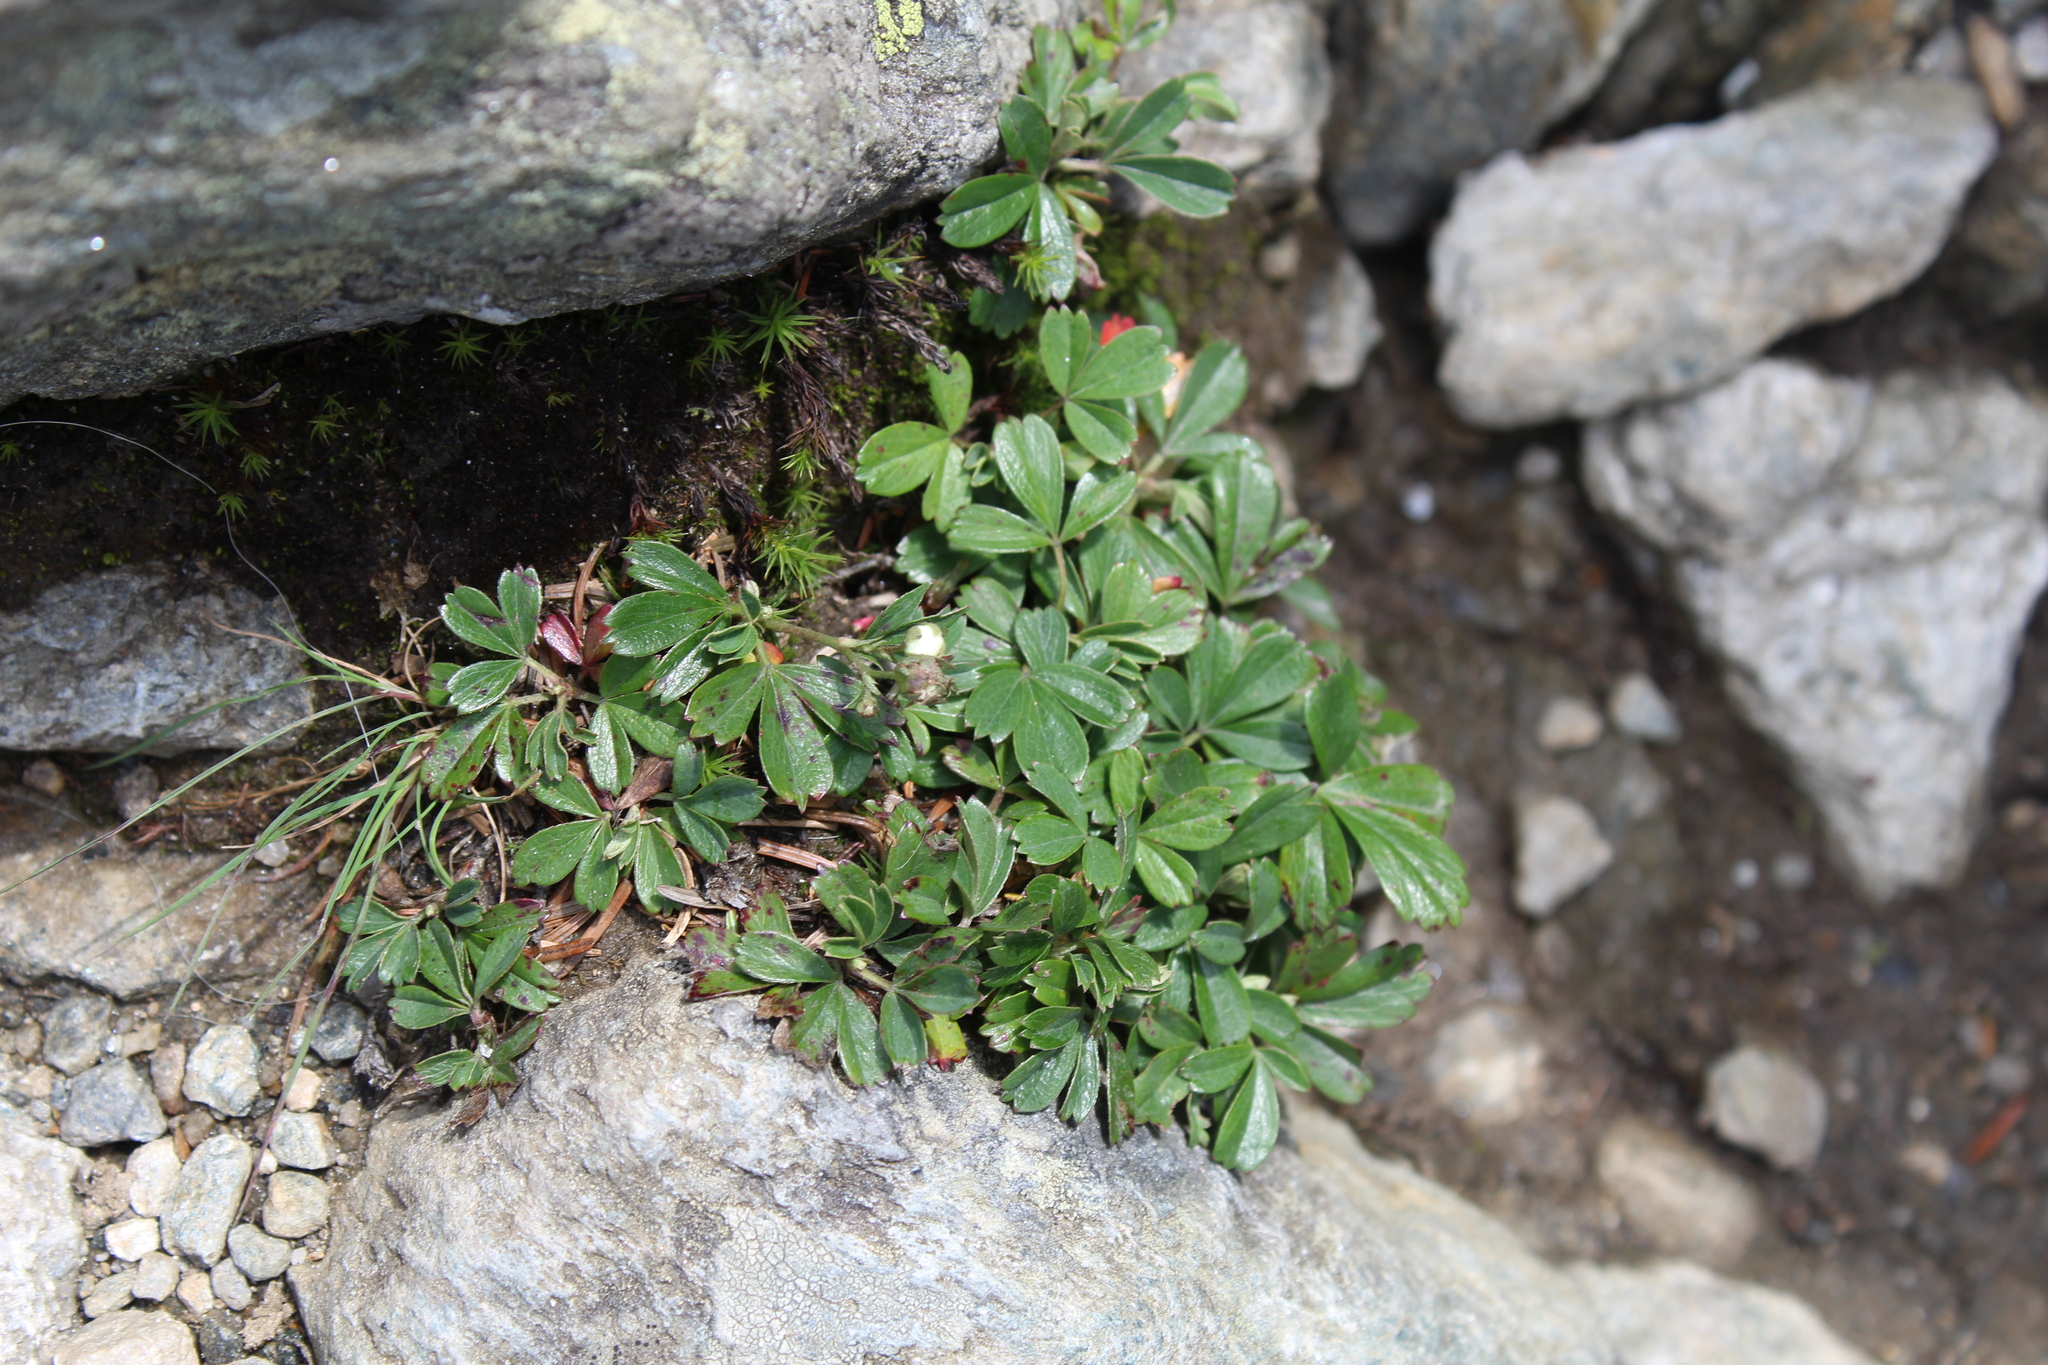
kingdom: Plantae
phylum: Tracheophyta
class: Magnoliopsida
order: Rosales
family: Rosaceae
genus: Sibbaldia
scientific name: Sibbaldia tridentata
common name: Three-toothed cinquefoil
